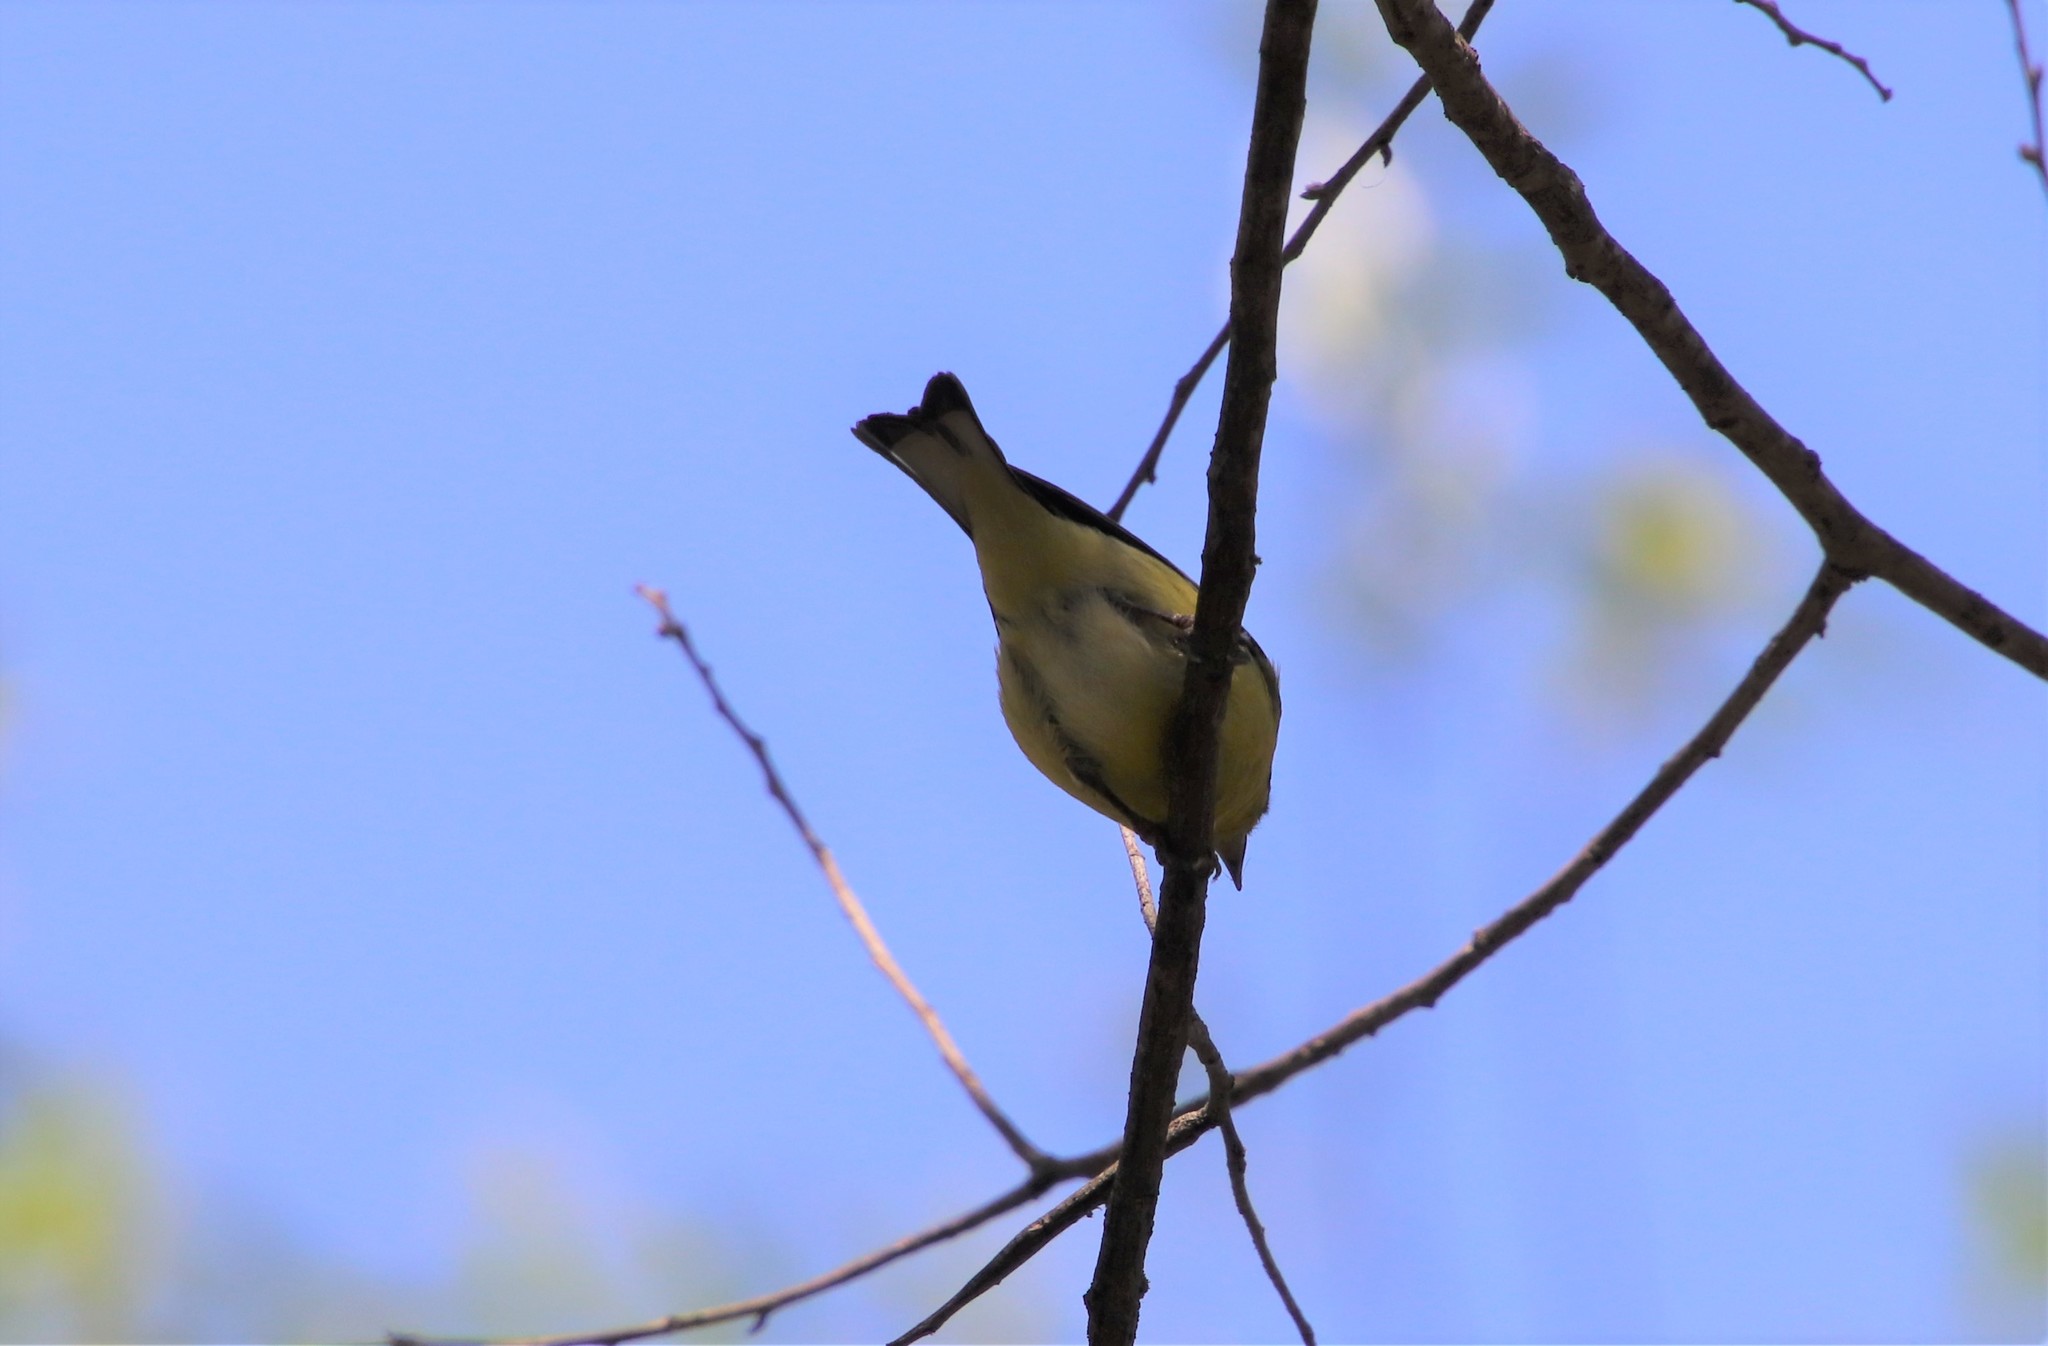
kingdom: Animalia
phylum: Chordata
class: Aves
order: Passeriformes
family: Fringillidae
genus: Spinus
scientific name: Spinus psaltria
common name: Lesser goldfinch
